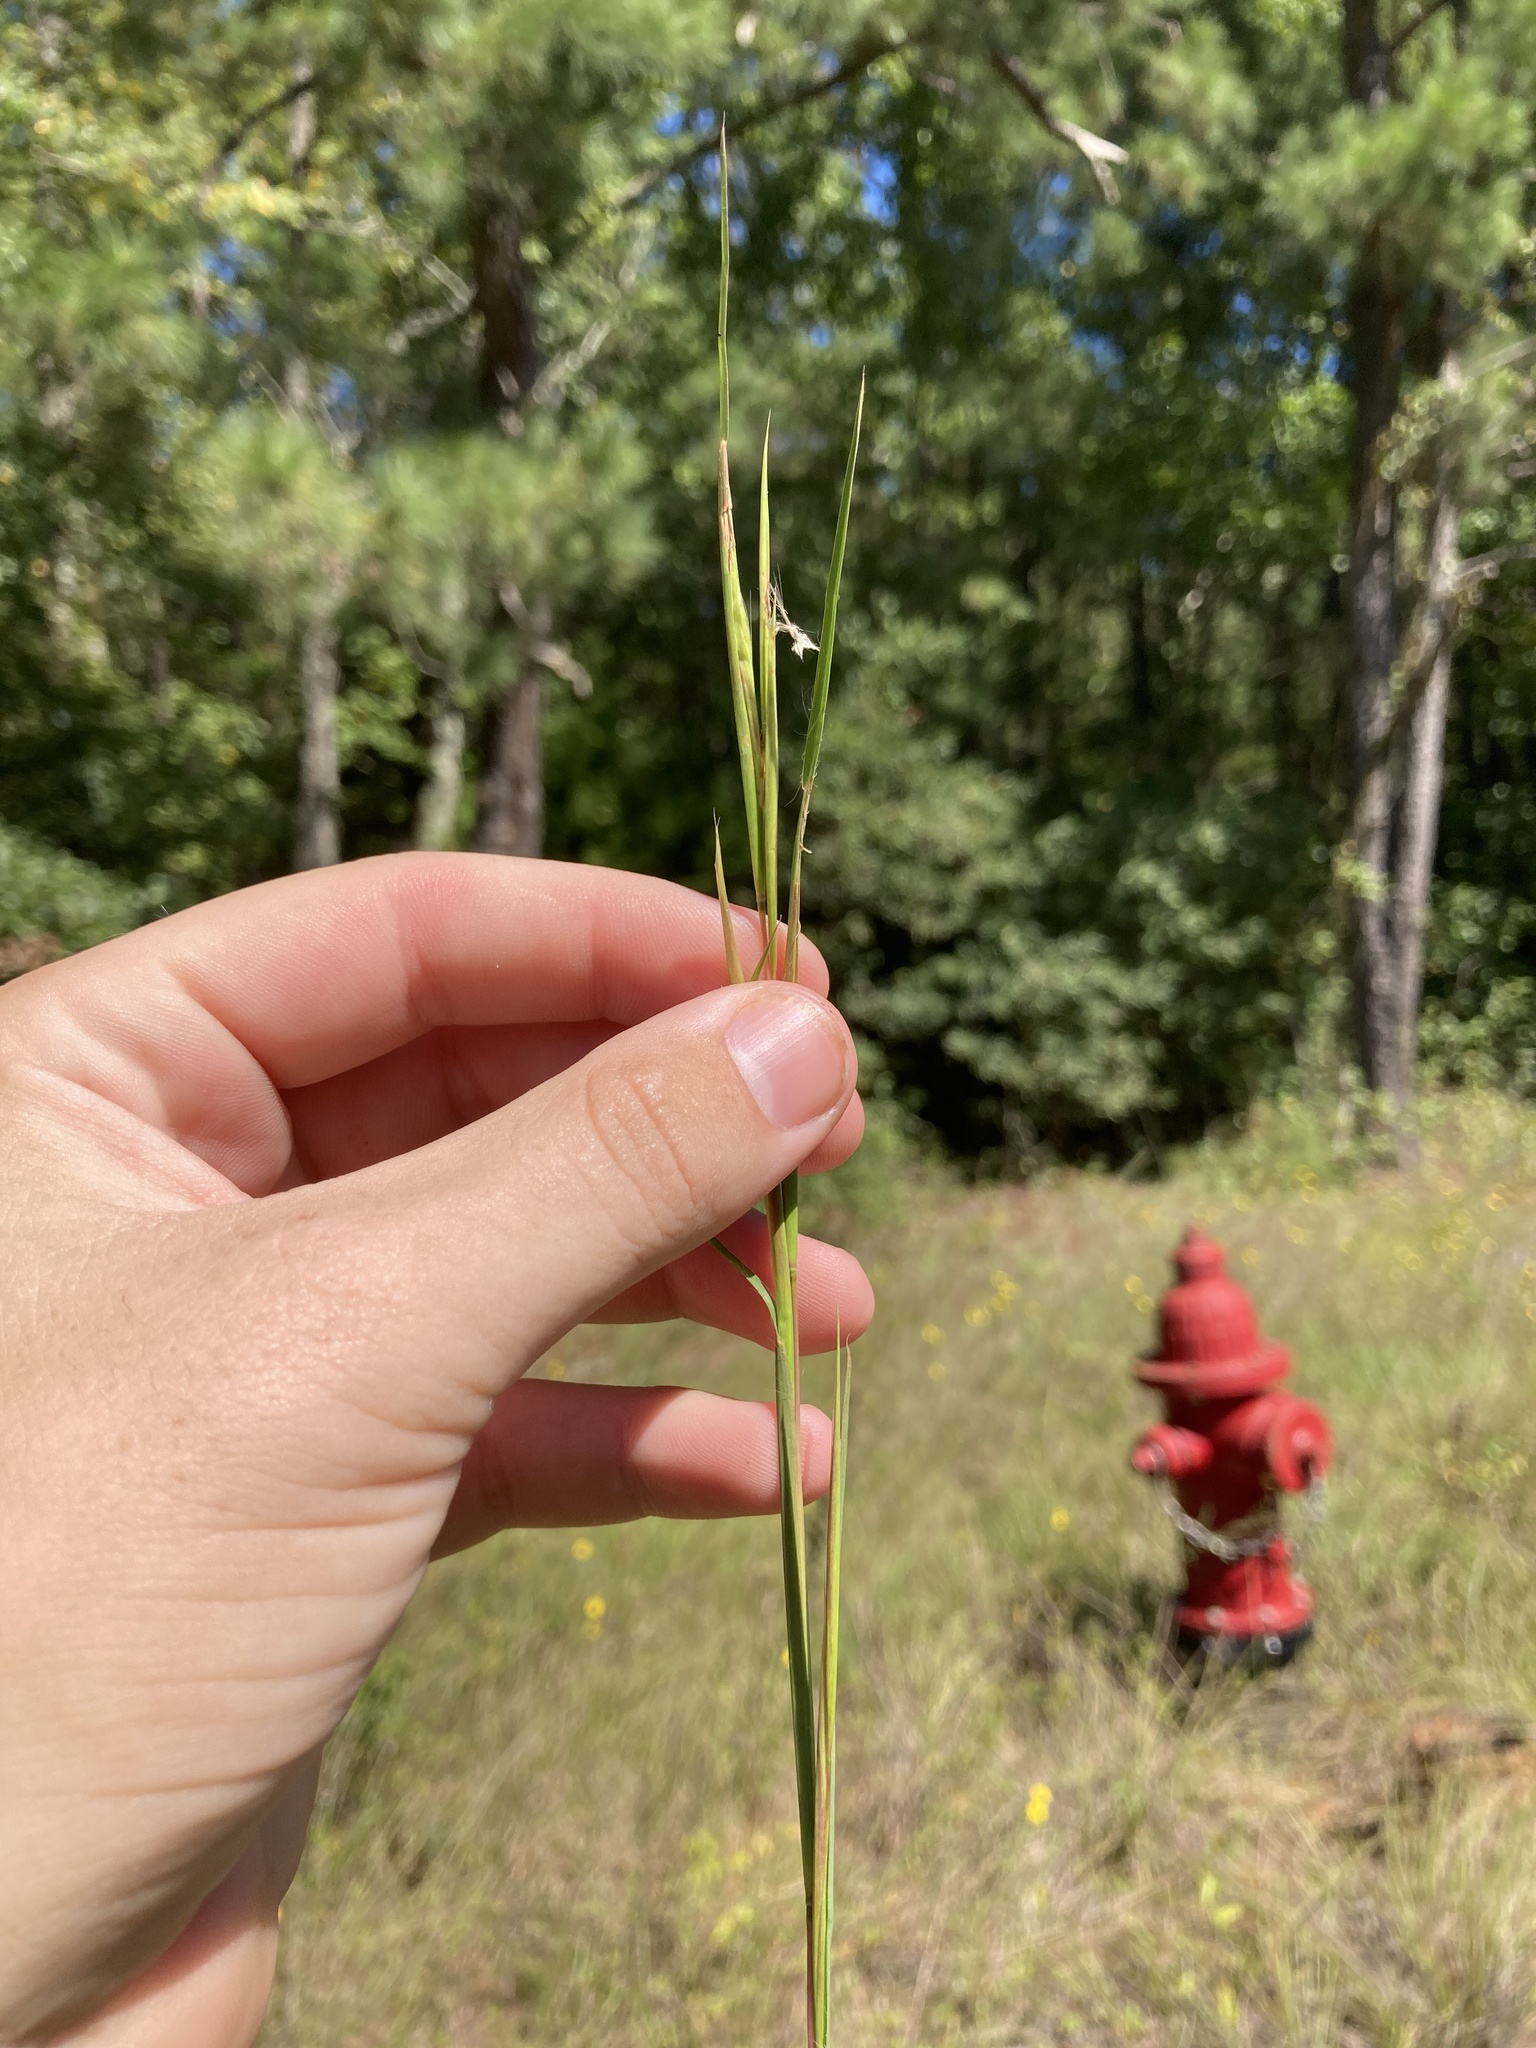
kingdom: Plantae
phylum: Tracheophyta
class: Liliopsida
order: Poales
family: Poaceae
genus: Andropogon
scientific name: Andropogon virginicus
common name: Broomsedge bluestem
